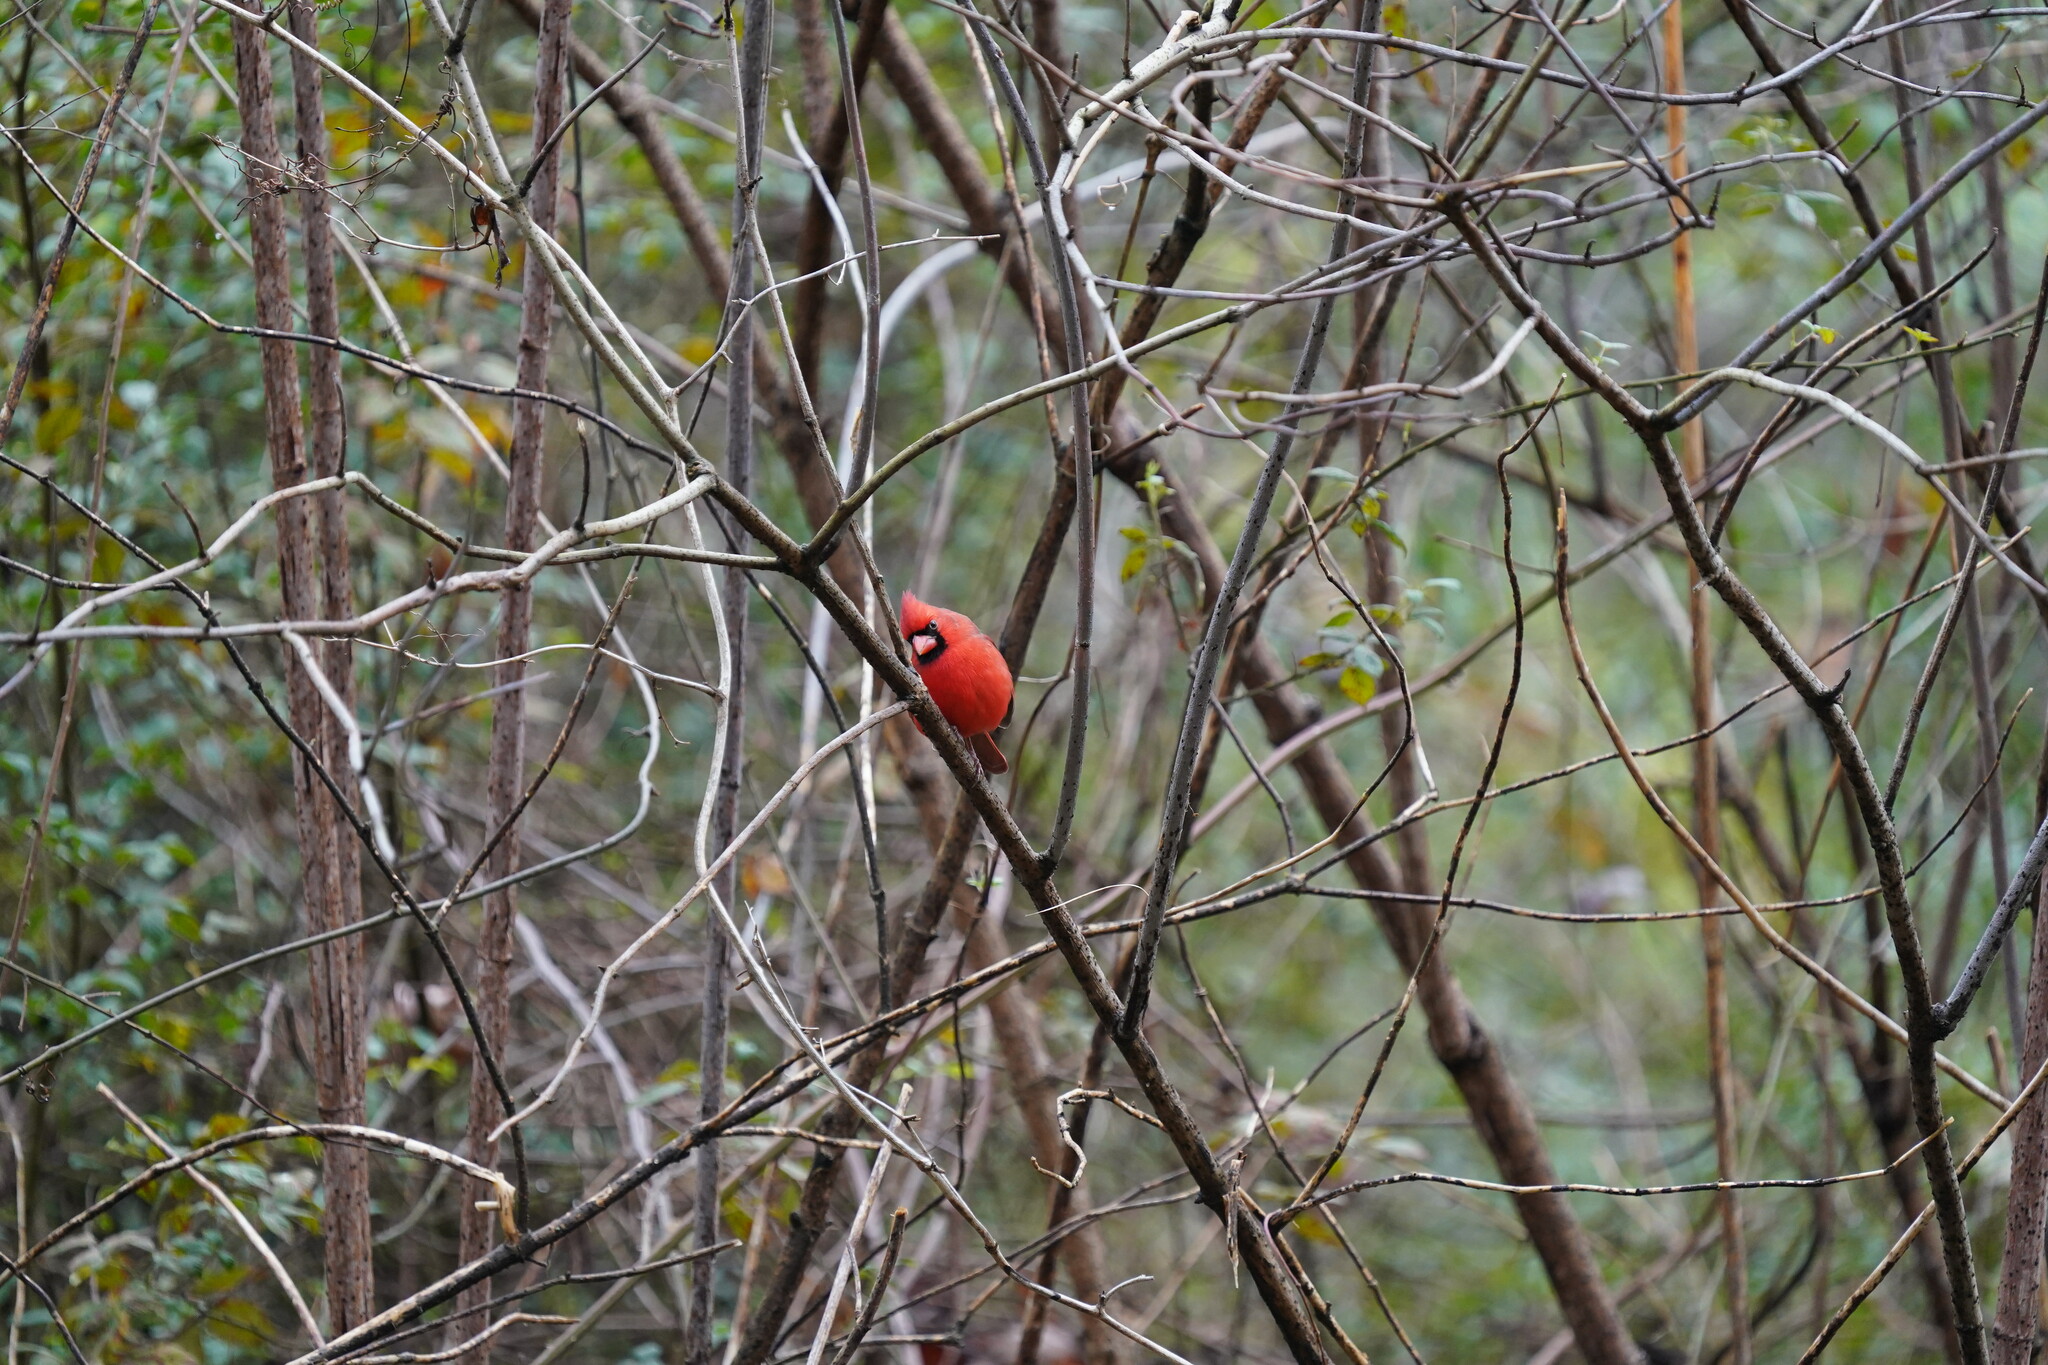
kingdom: Animalia
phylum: Chordata
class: Aves
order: Passeriformes
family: Cardinalidae
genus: Cardinalis
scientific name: Cardinalis cardinalis
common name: Northern cardinal
